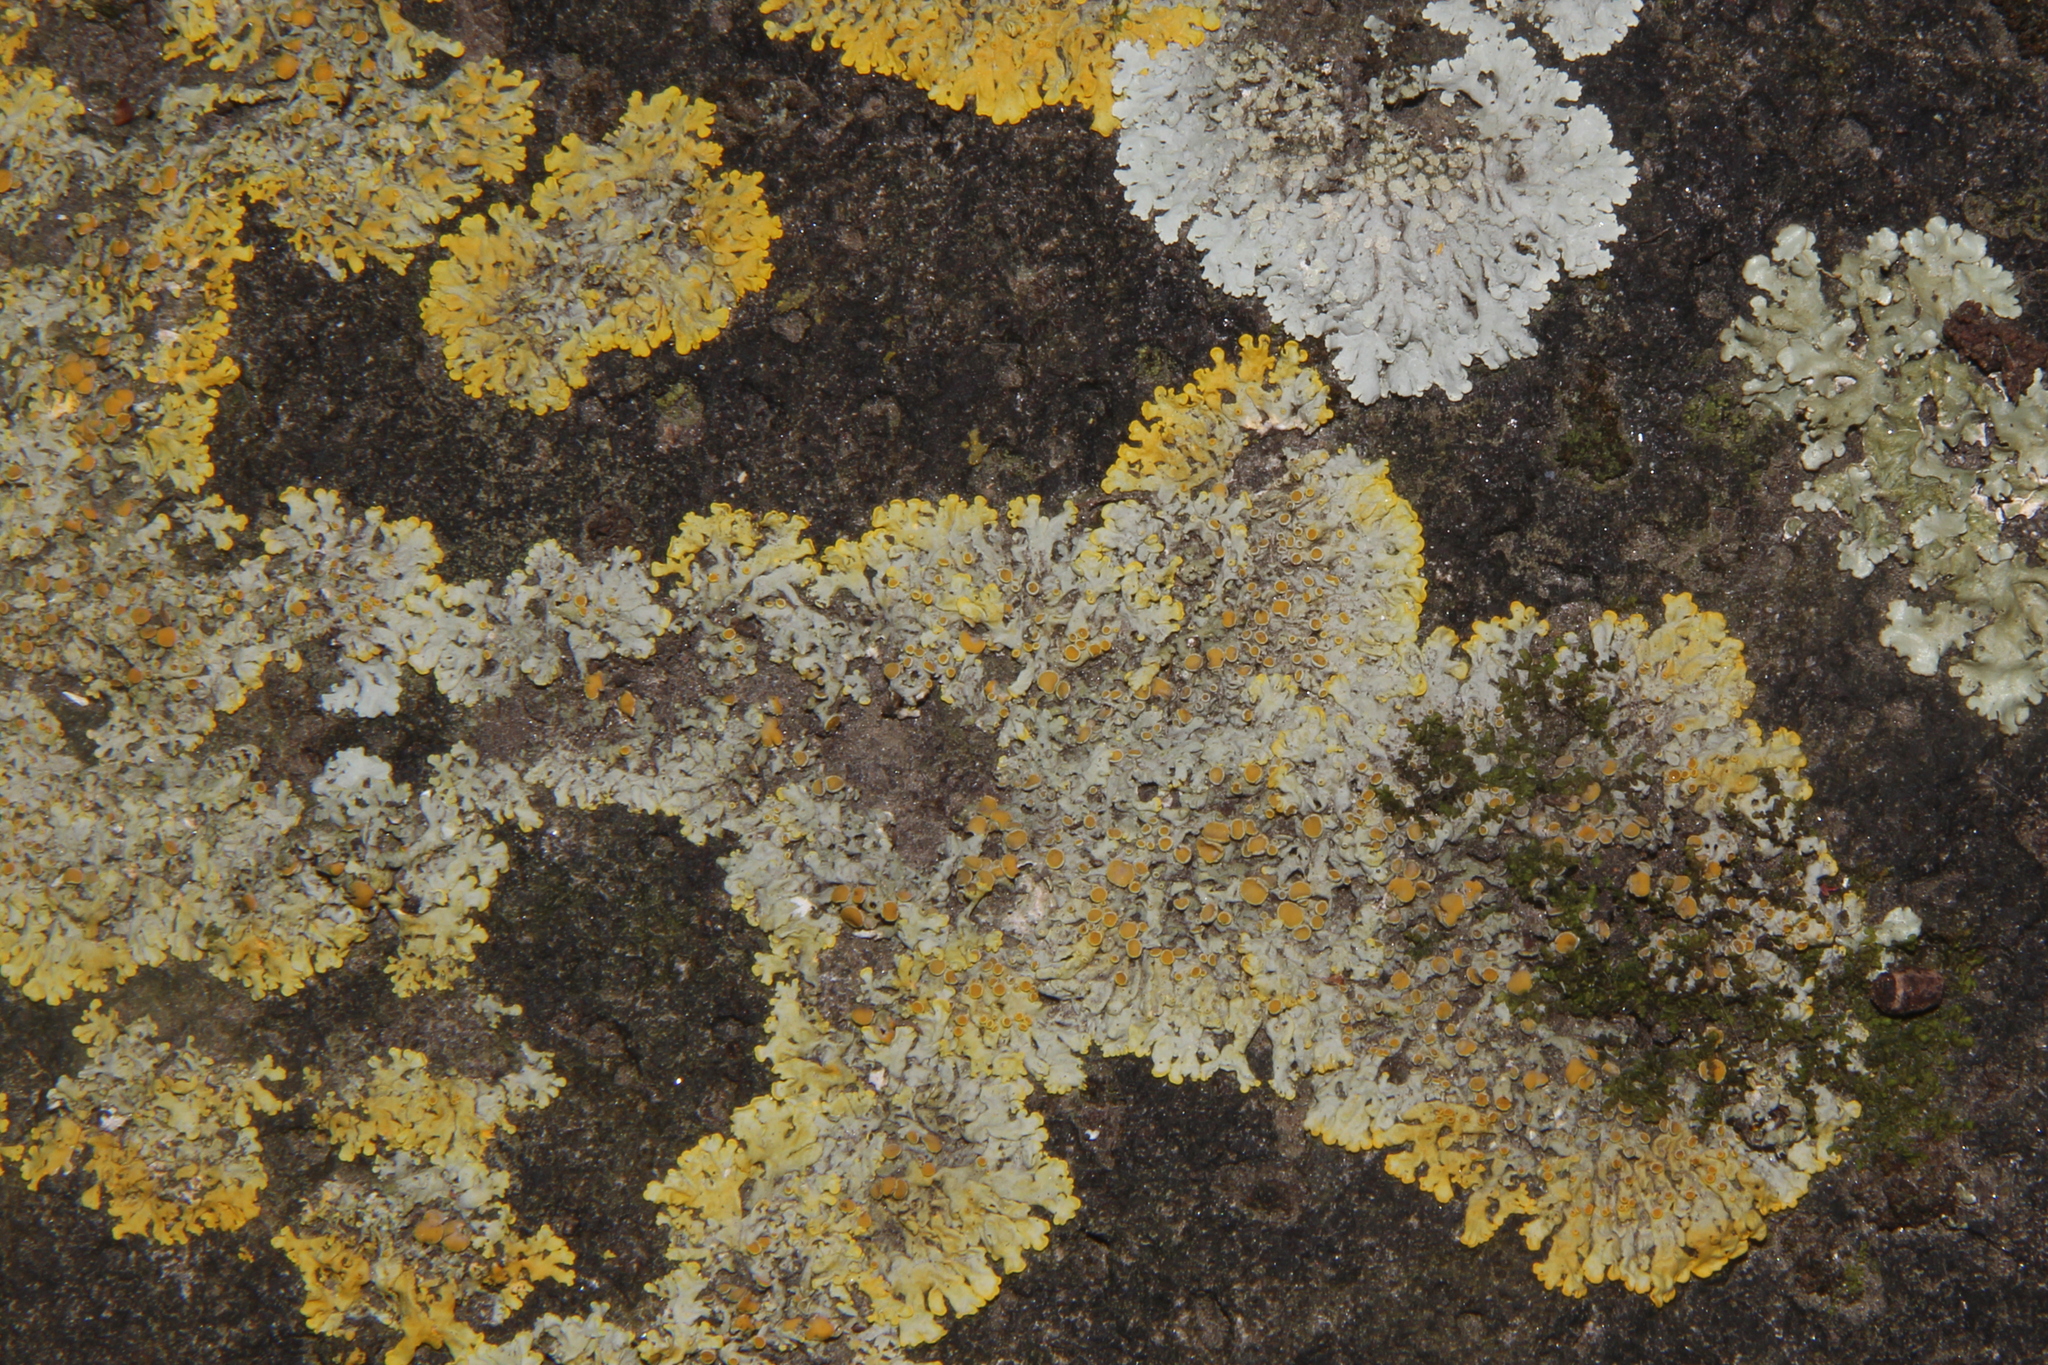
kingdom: Fungi
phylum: Ascomycota
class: Lecanoromycetes
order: Teloschistales
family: Teloschistaceae
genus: Xanthoria
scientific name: Xanthoria parietina
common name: Common orange lichen
